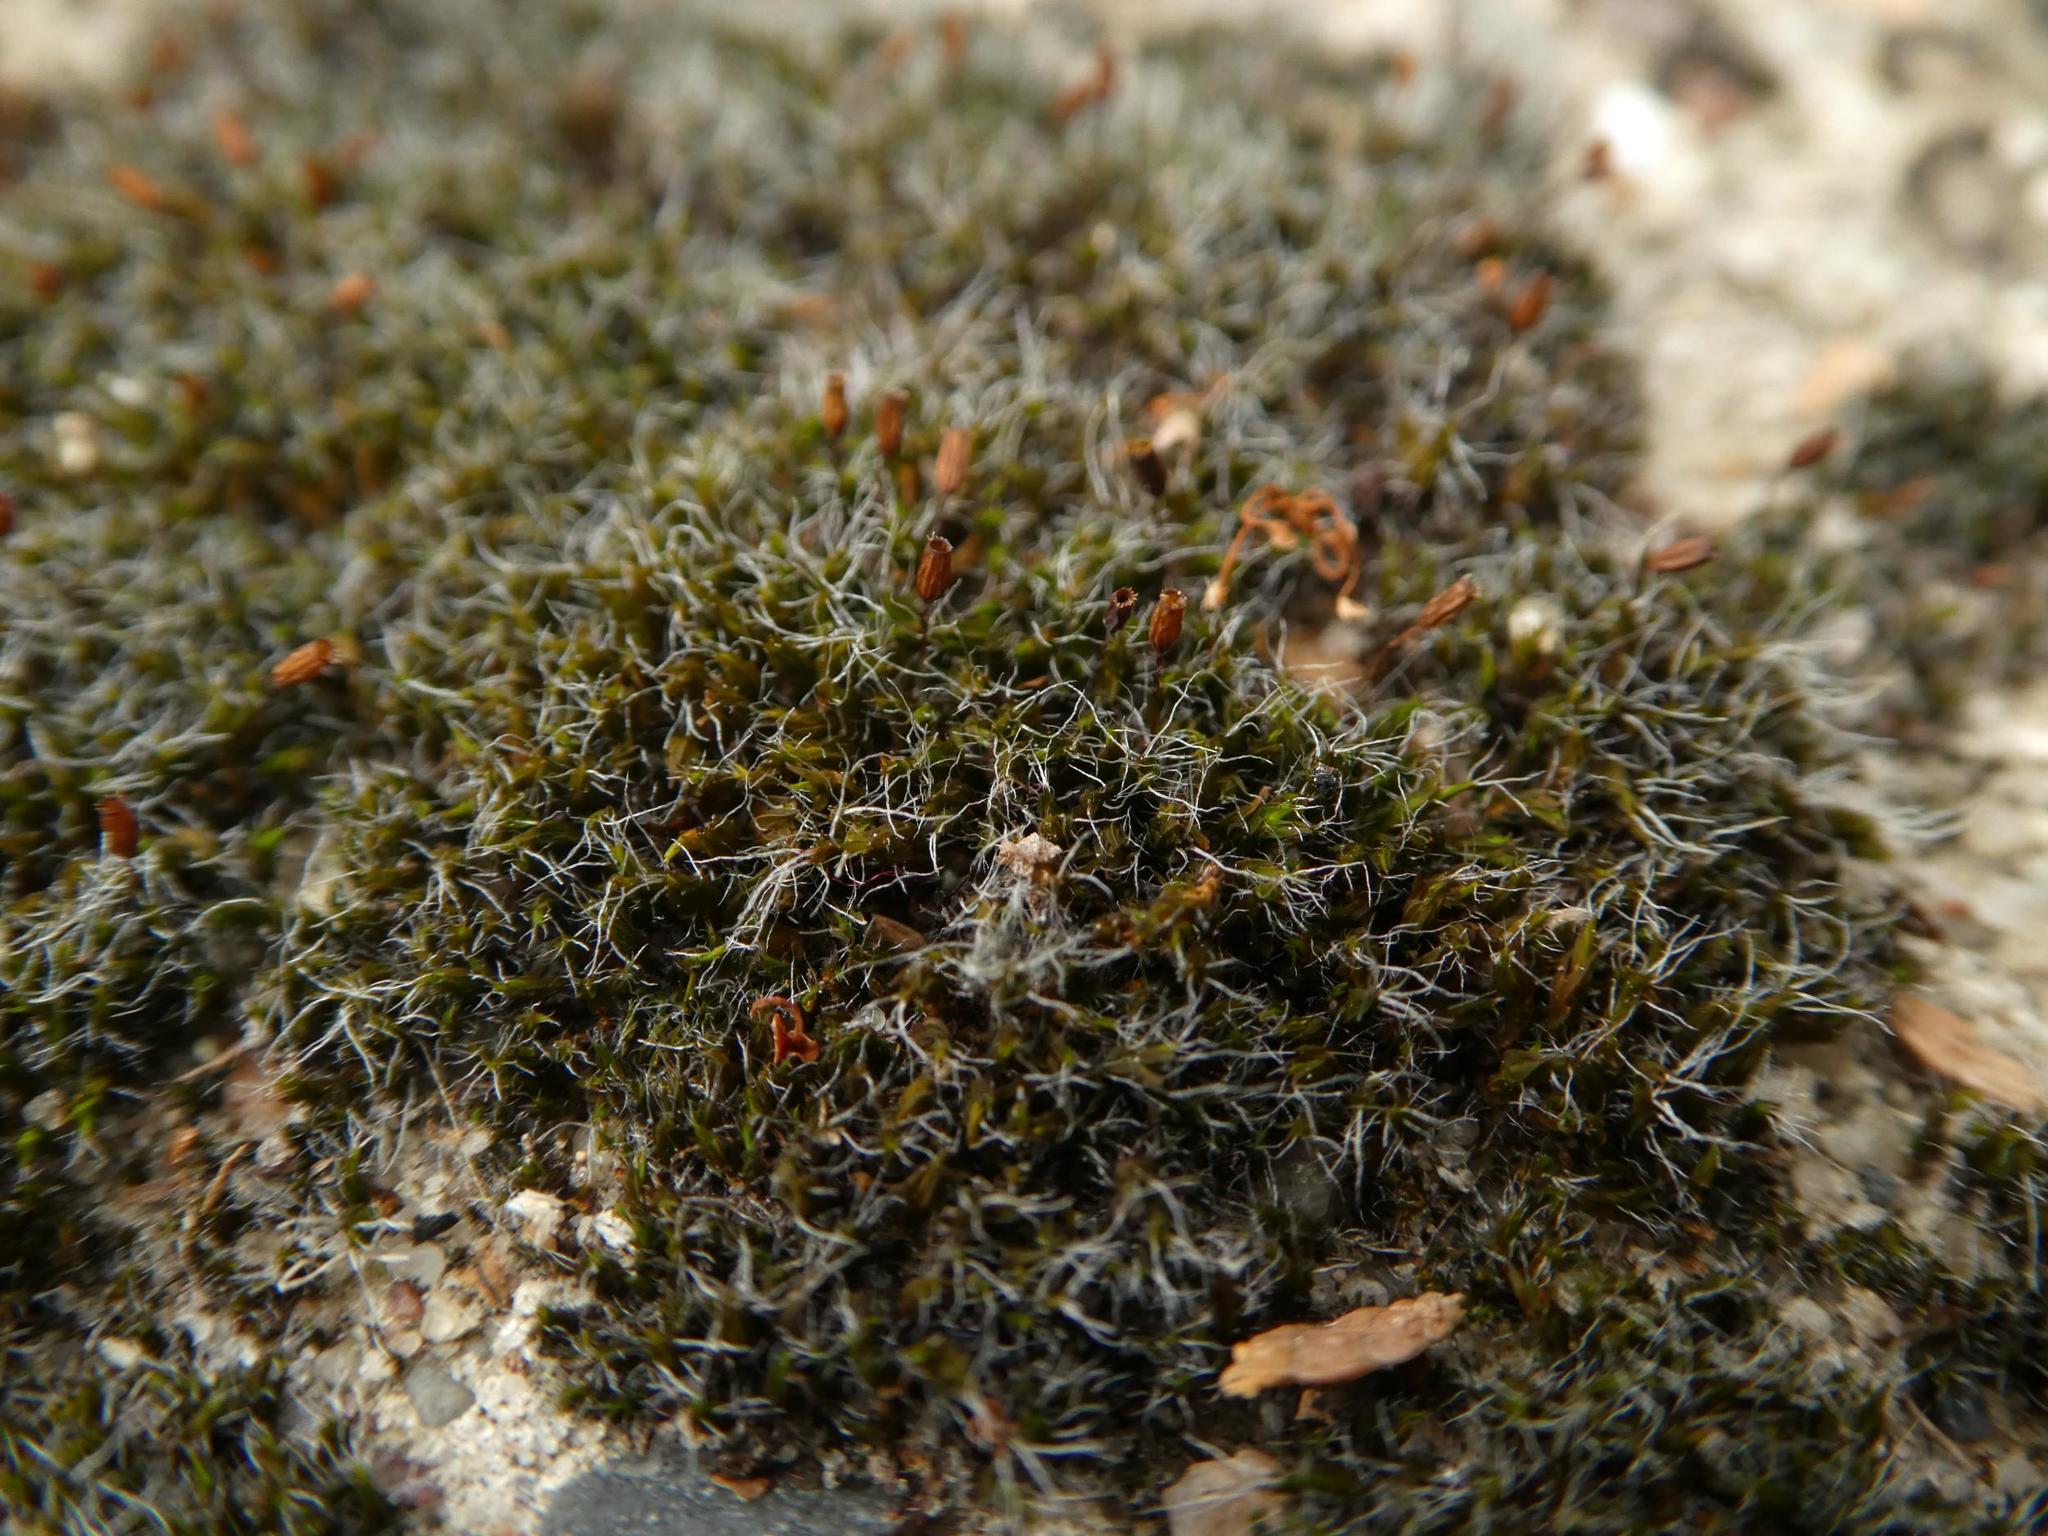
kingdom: Plantae
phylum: Bryophyta
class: Bryopsida
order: Grimmiales
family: Grimmiaceae
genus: Grimmia
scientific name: Grimmia pulvinata
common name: Grey-cushioned grimmia
